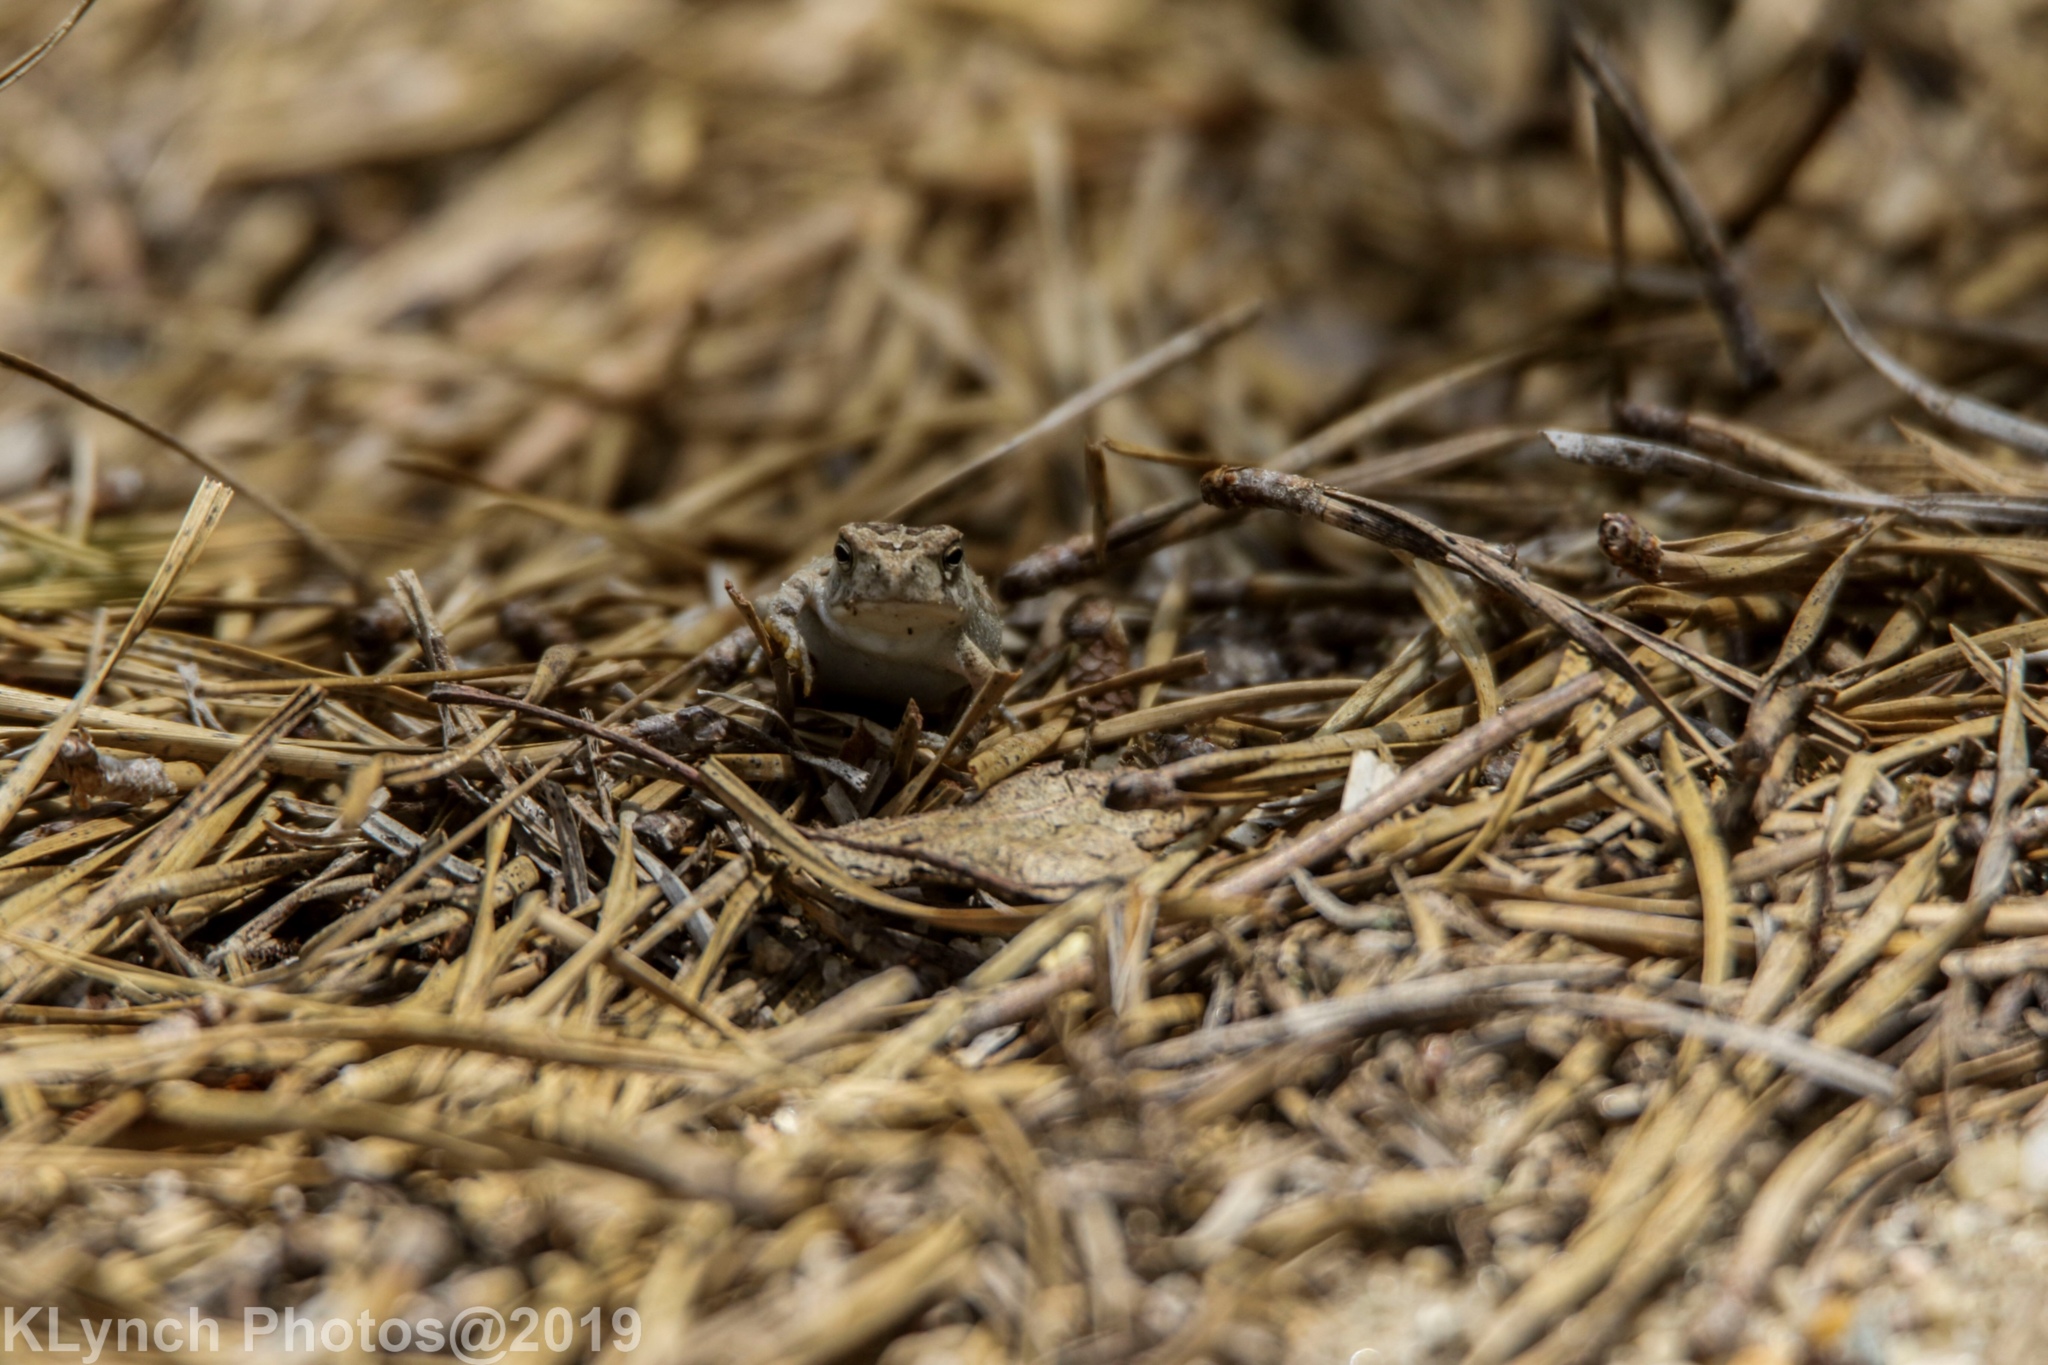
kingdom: Animalia
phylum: Chordata
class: Amphibia
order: Anura
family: Bufonidae
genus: Anaxyrus
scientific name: Anaxyrus fowleri
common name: Fowler's toad
